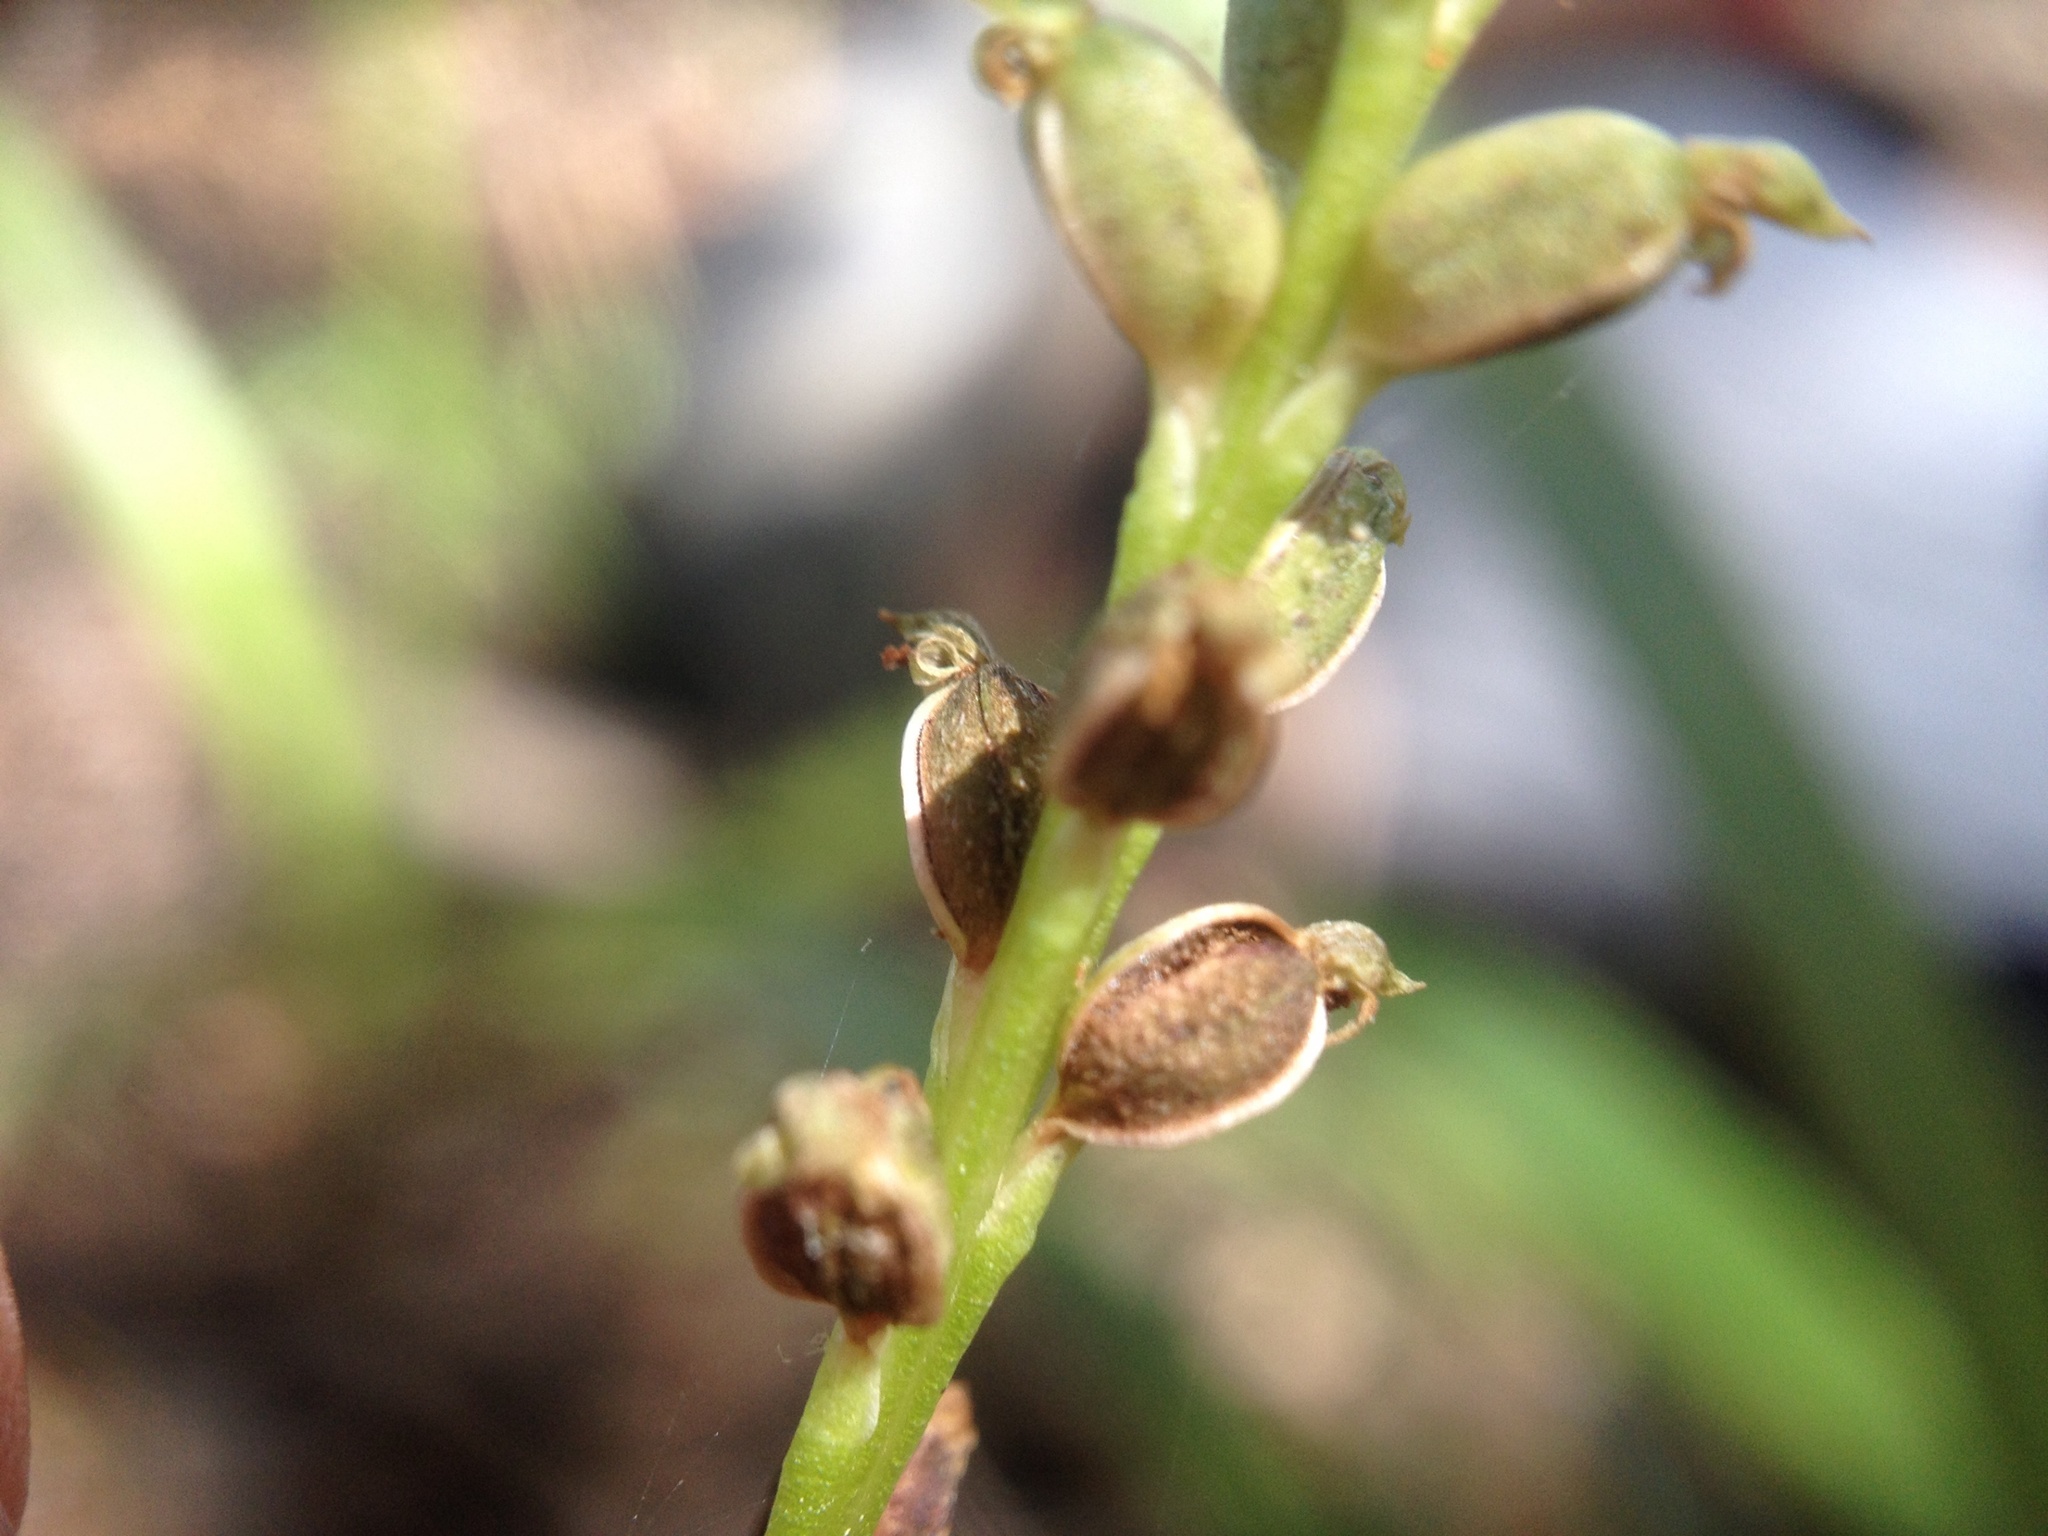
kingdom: Plantae
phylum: Tracheophyta
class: Liliopsida
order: Asparagales
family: Orchidaceae
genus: Microtis
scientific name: Microtis unifolia
